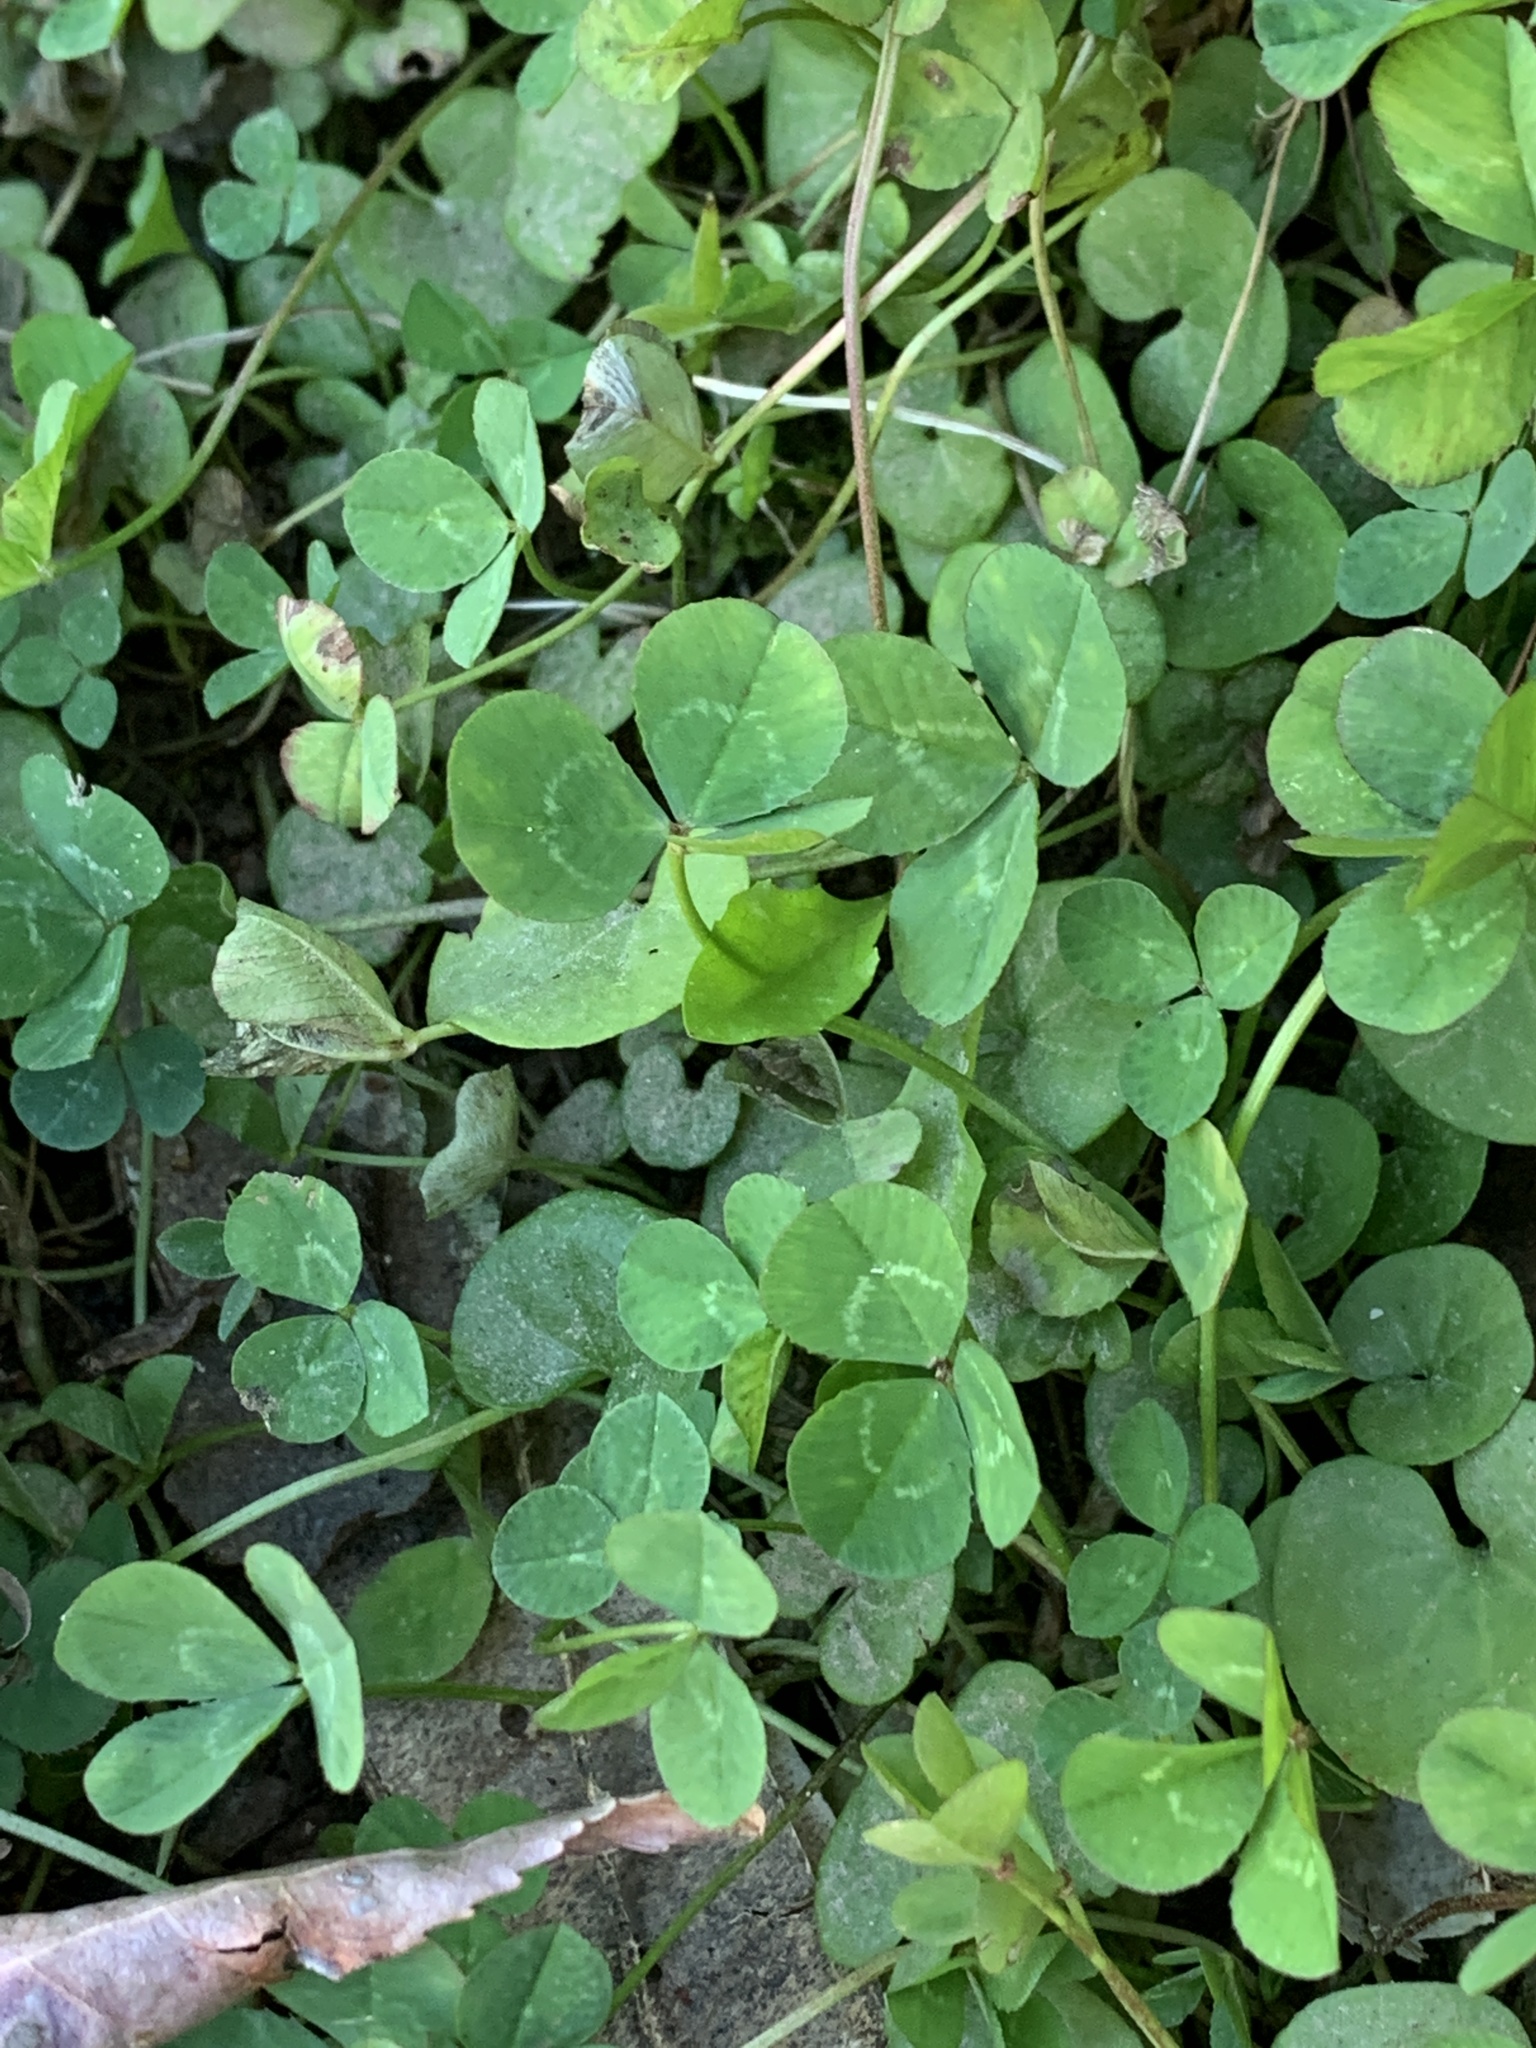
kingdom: Plantae
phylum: Tracheophyta
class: Magnoliopsida
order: Fabales
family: Fabaceae
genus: Trifolium
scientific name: Trifolium repens
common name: White clover
